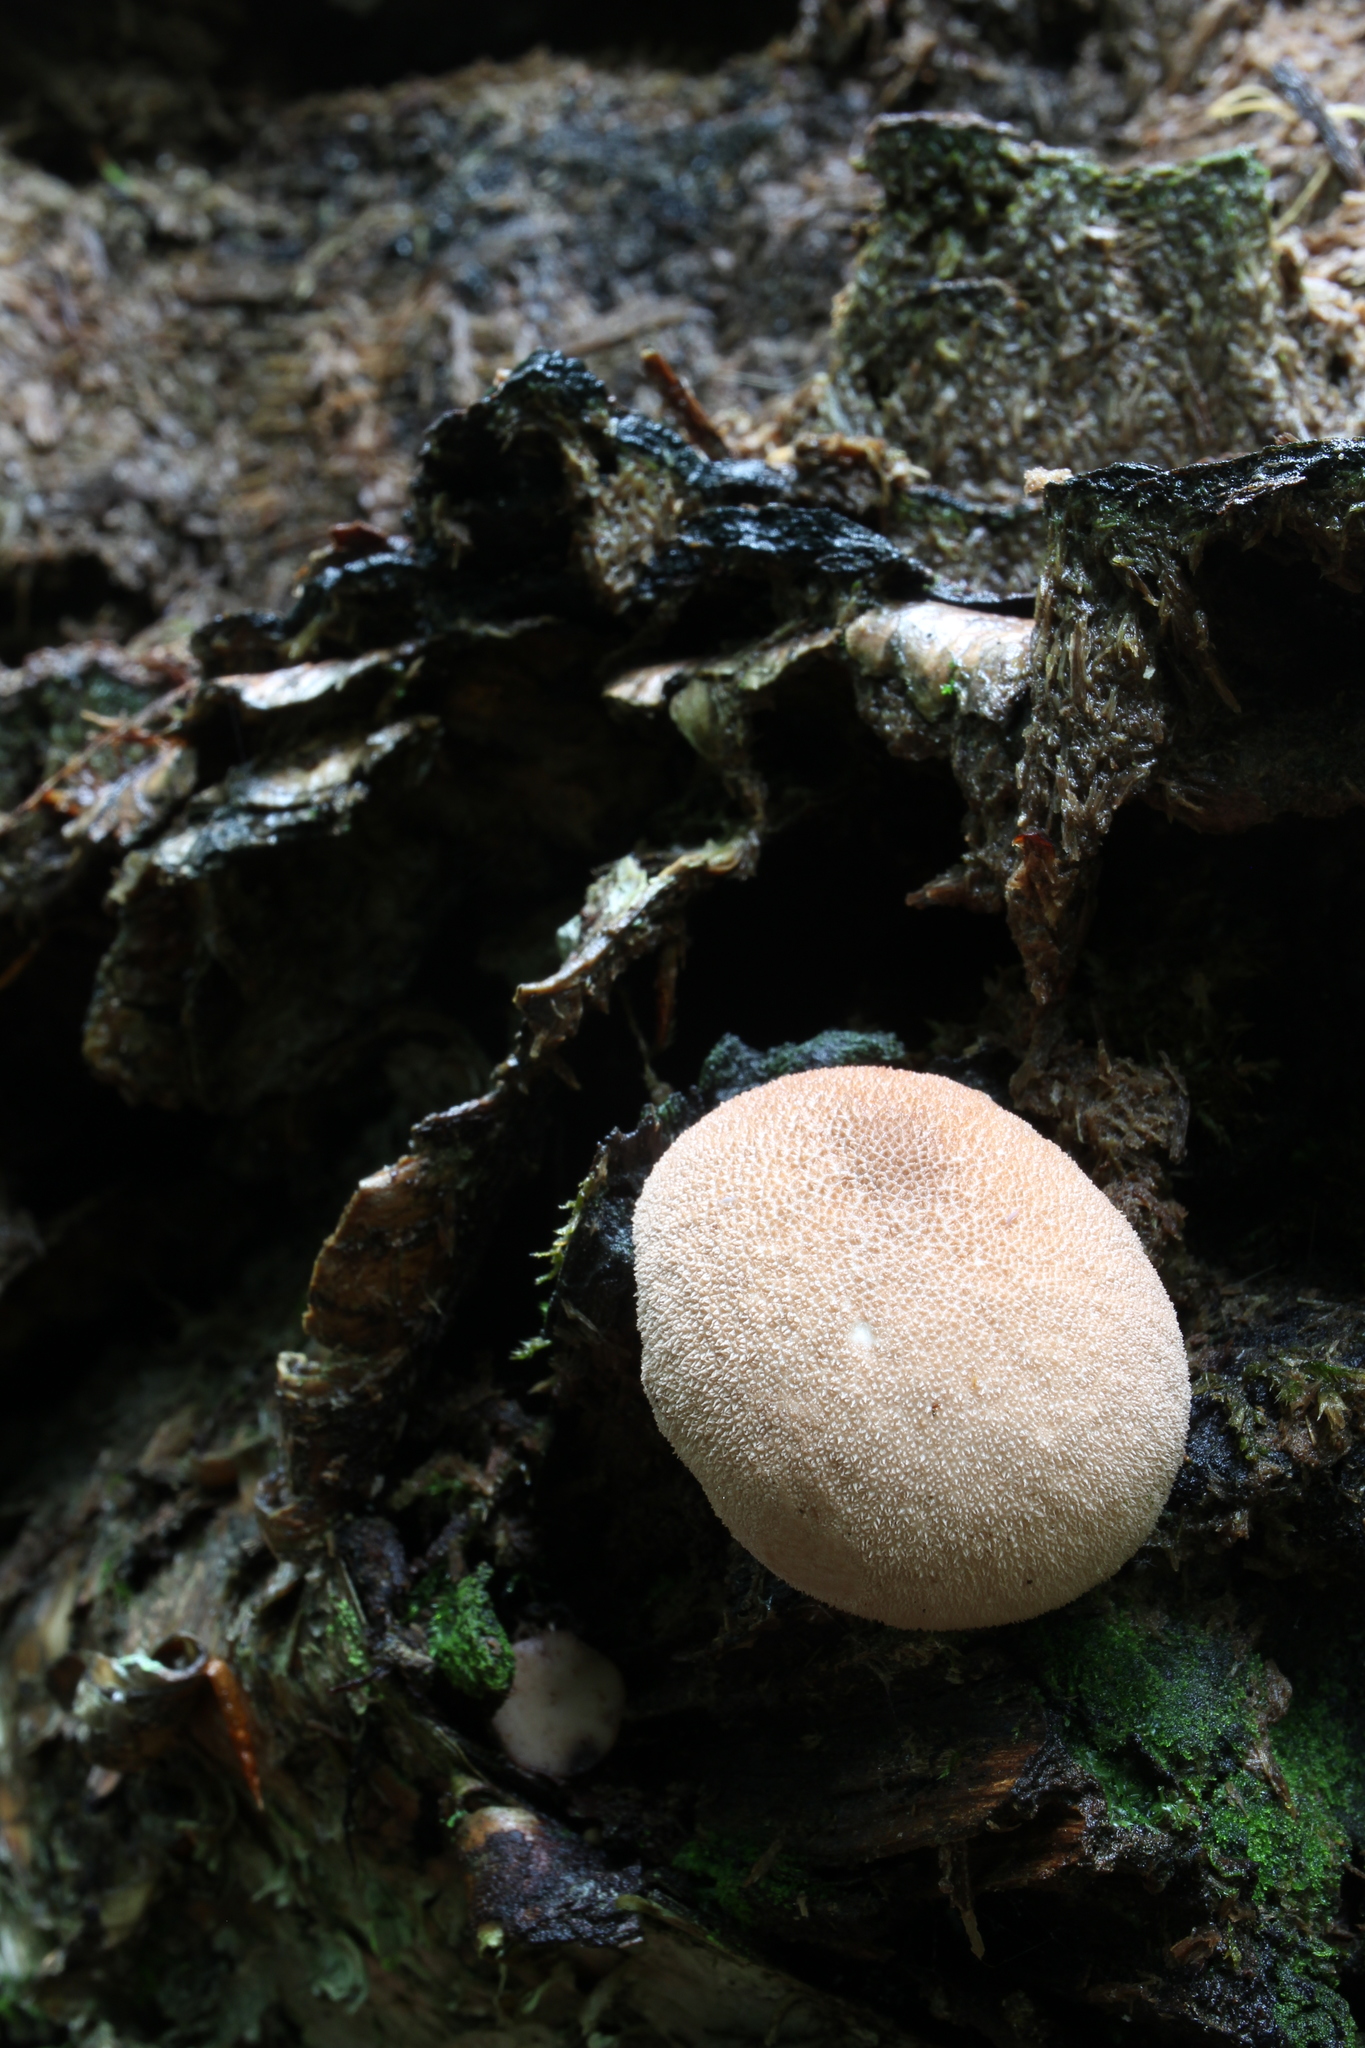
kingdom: Fungi
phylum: Basidiomycota
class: Agaricomycetes
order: Agaricales
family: Lycoperdaceae
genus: Lycoperdon
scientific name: Lycoperdon subincarnatum
